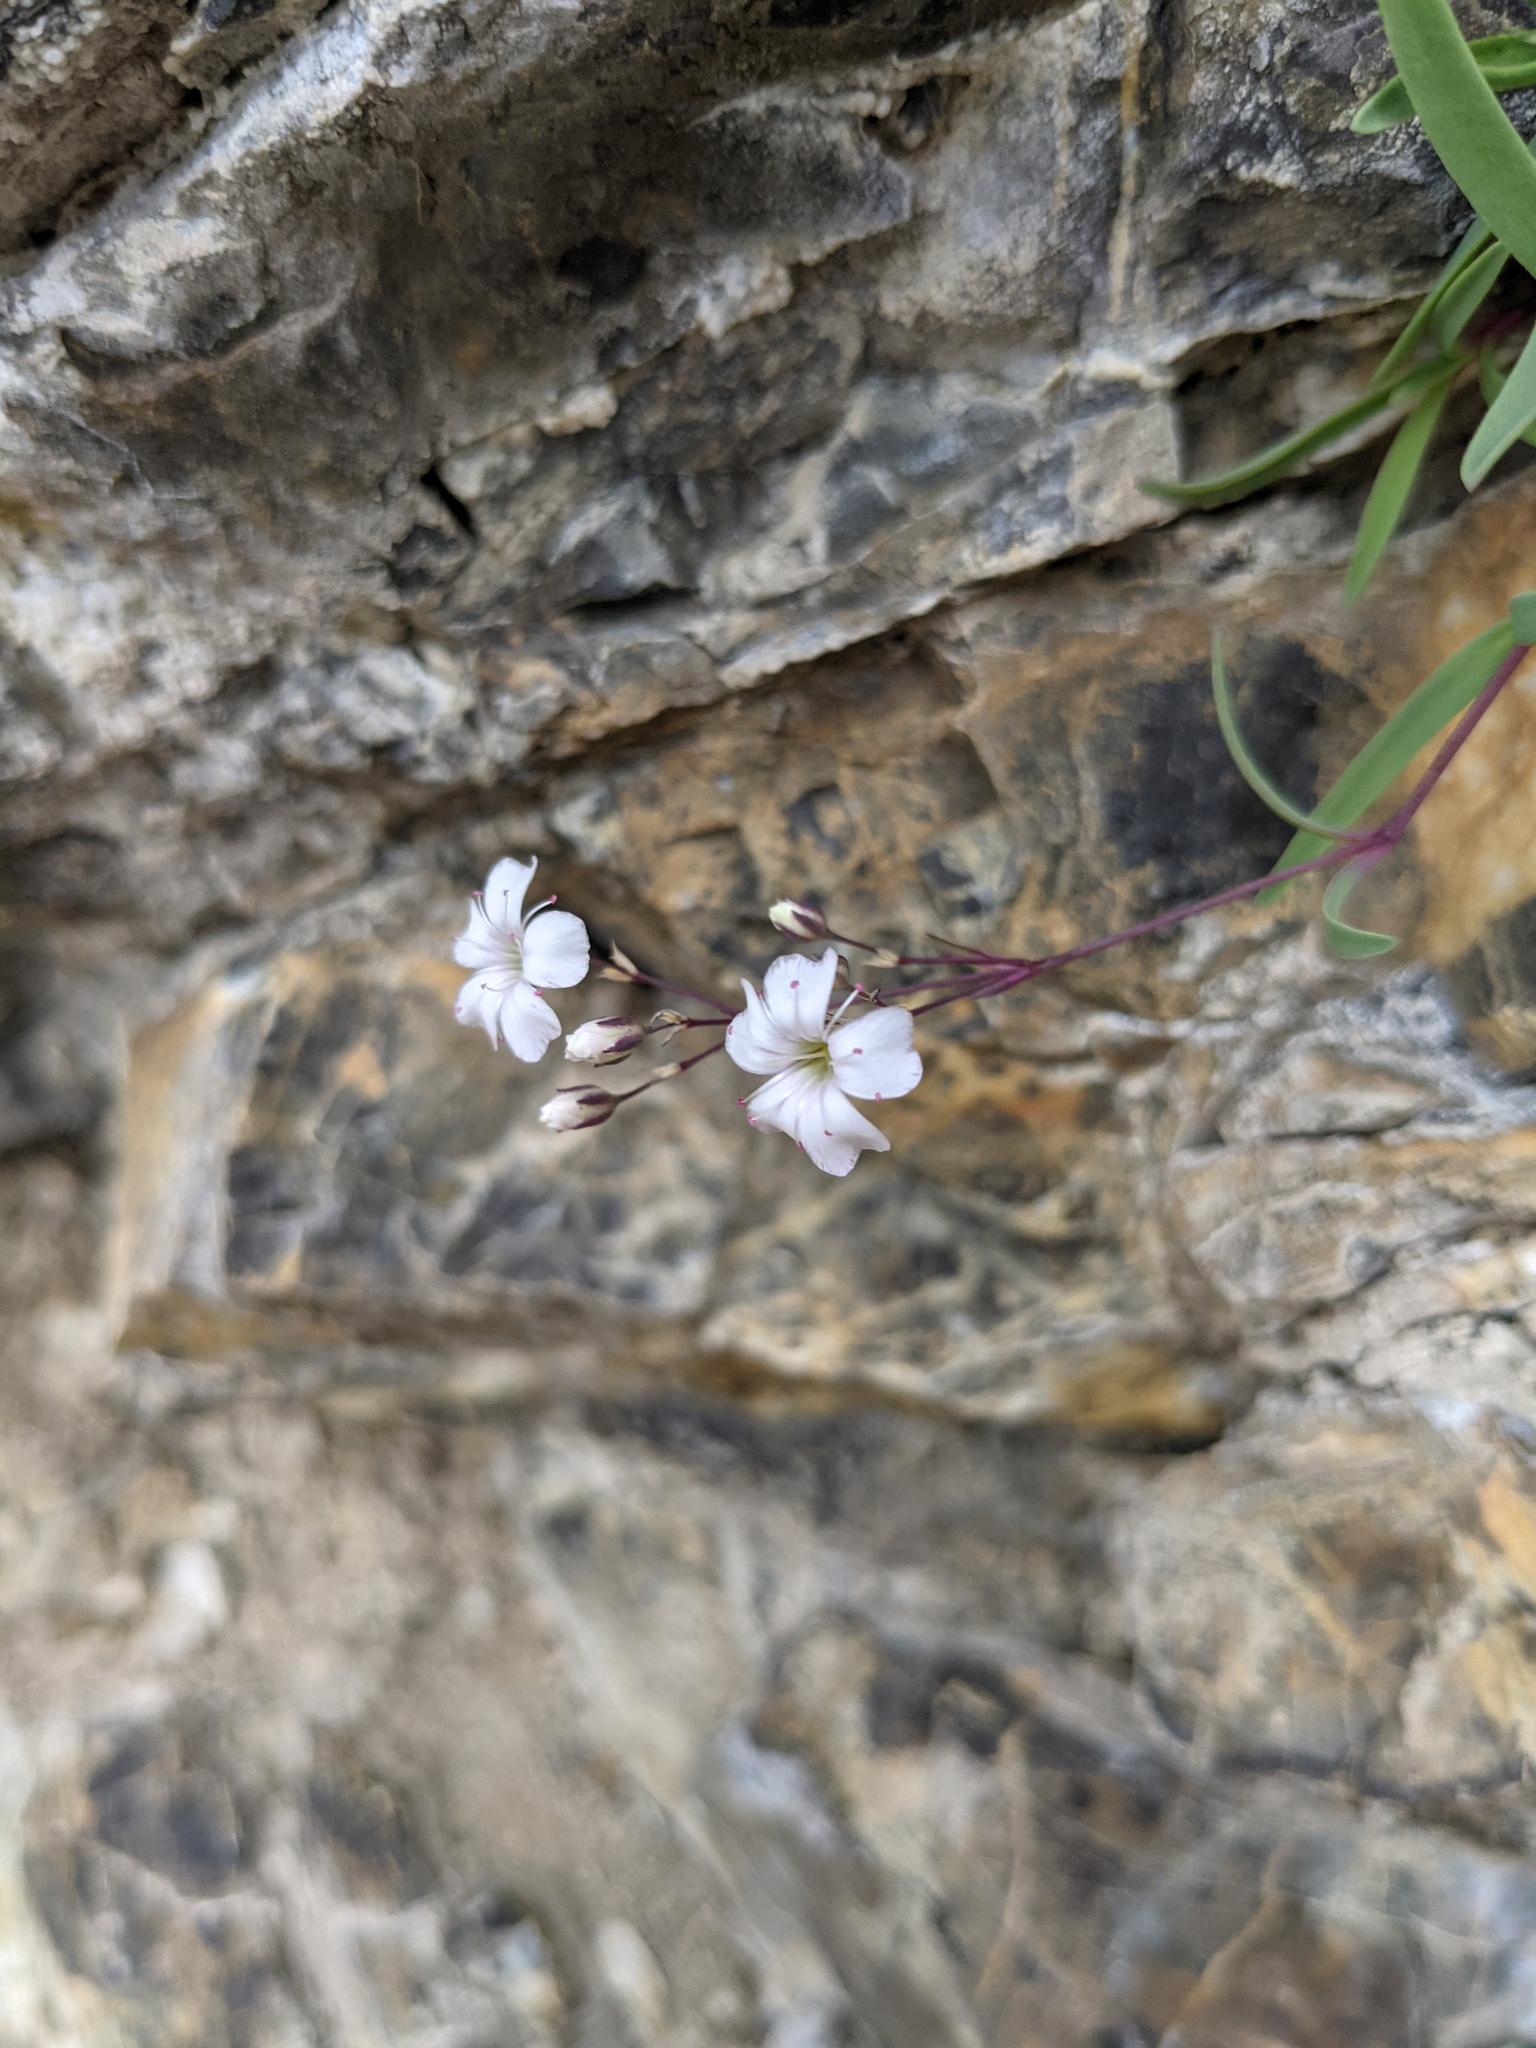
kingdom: Plantae
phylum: Tracheophyta
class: Magnoliopsida
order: Caryophyllales
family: Caryophyllaceae
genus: Gypsophila
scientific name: Gypsophila repens
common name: Creeping baby's-breath
